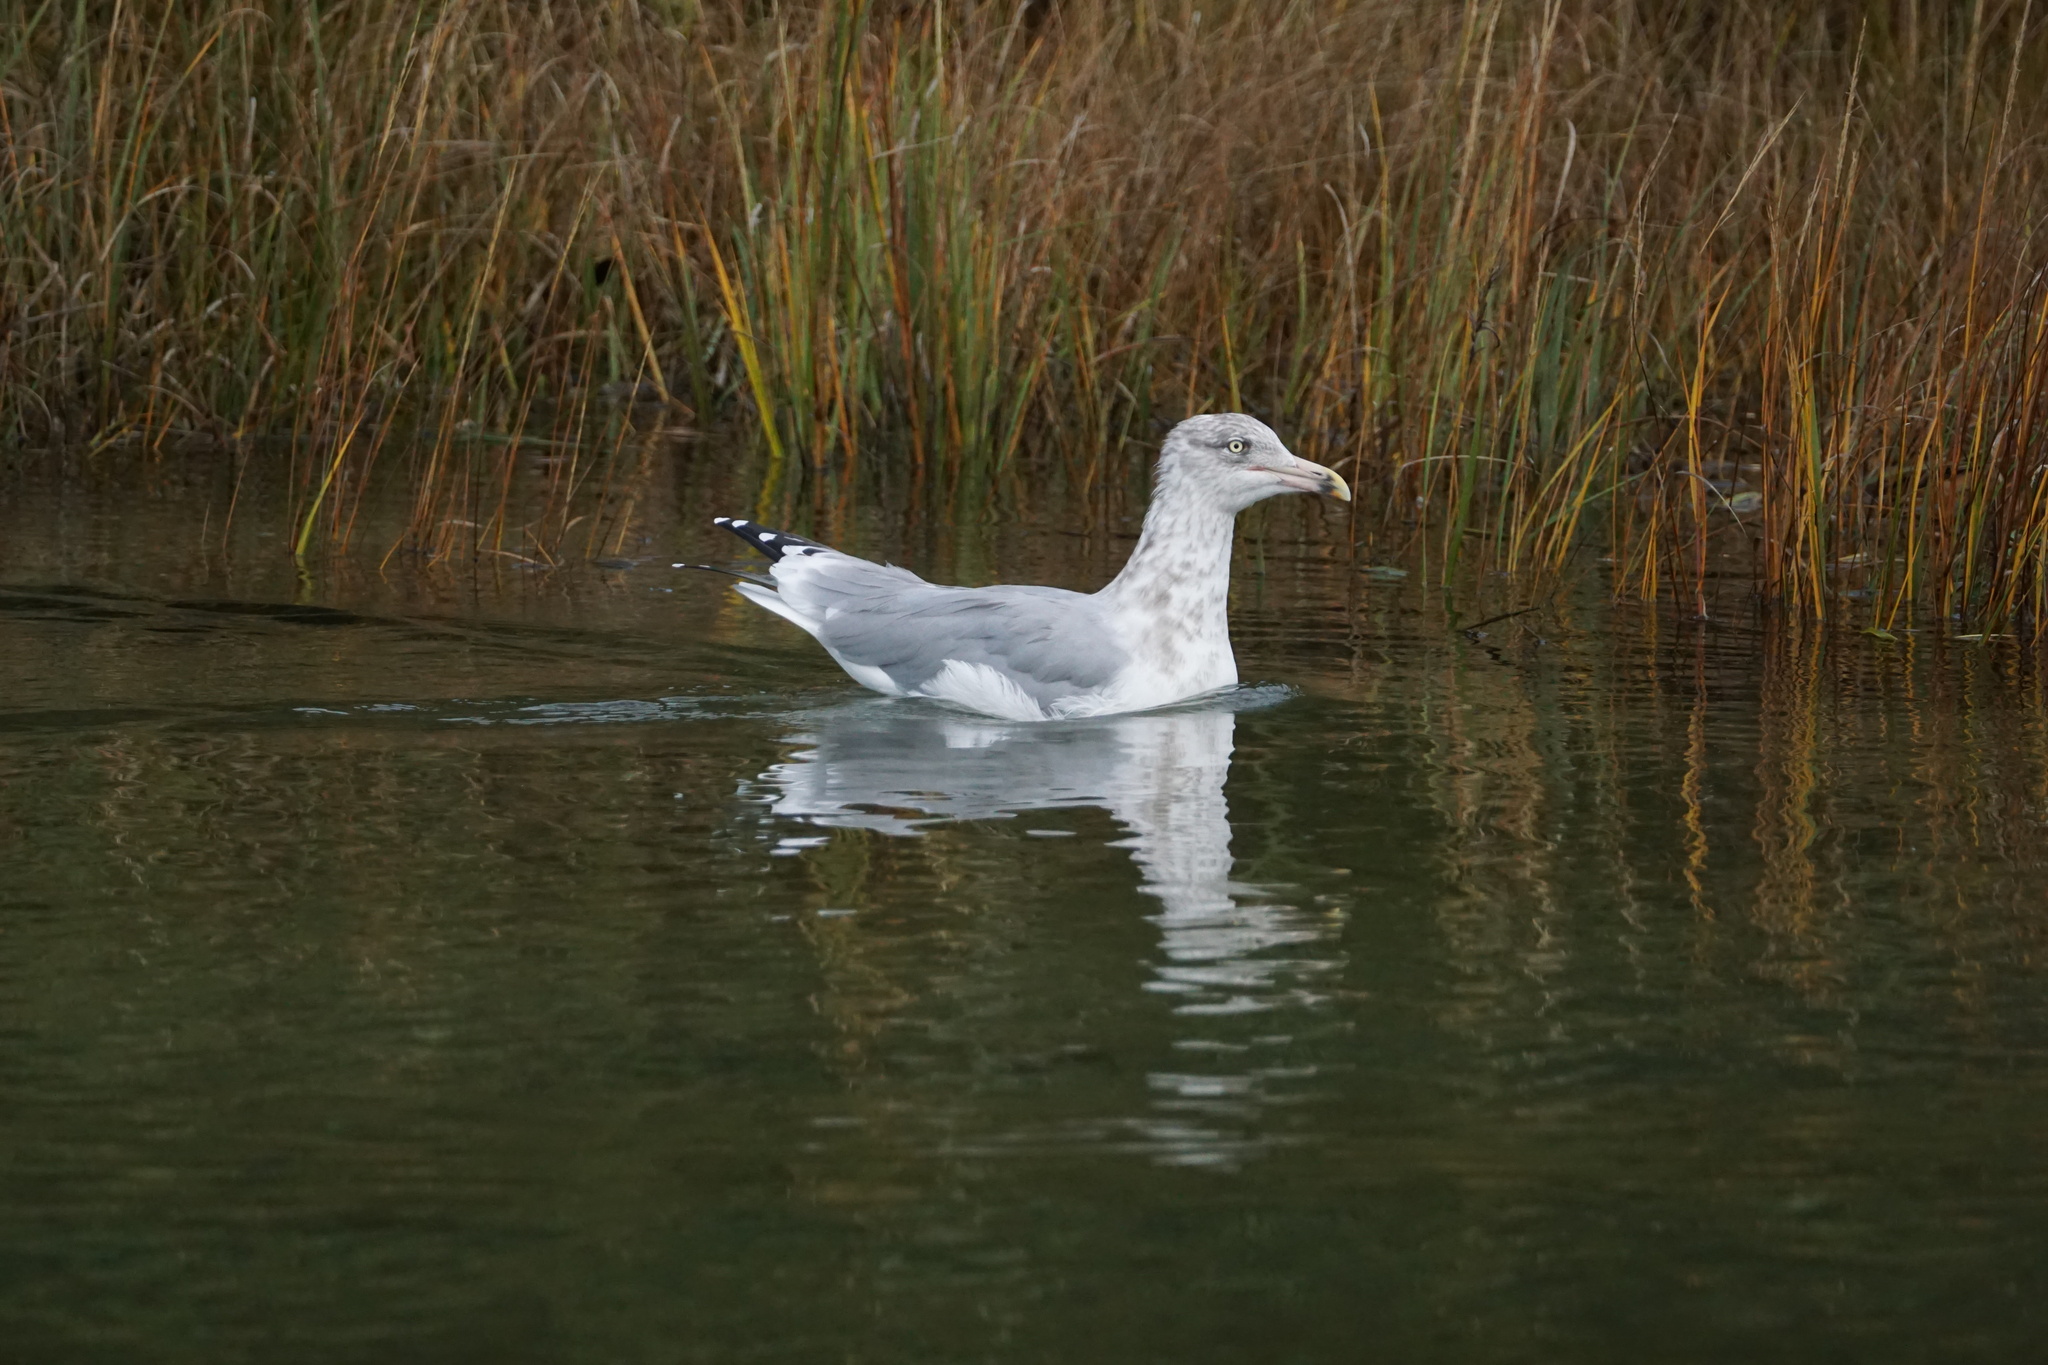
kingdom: Animalia
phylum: Chordata
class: Aves
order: Charadriiformes
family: Laridae
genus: Larus
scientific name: Larus argentatus
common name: Herring gull
